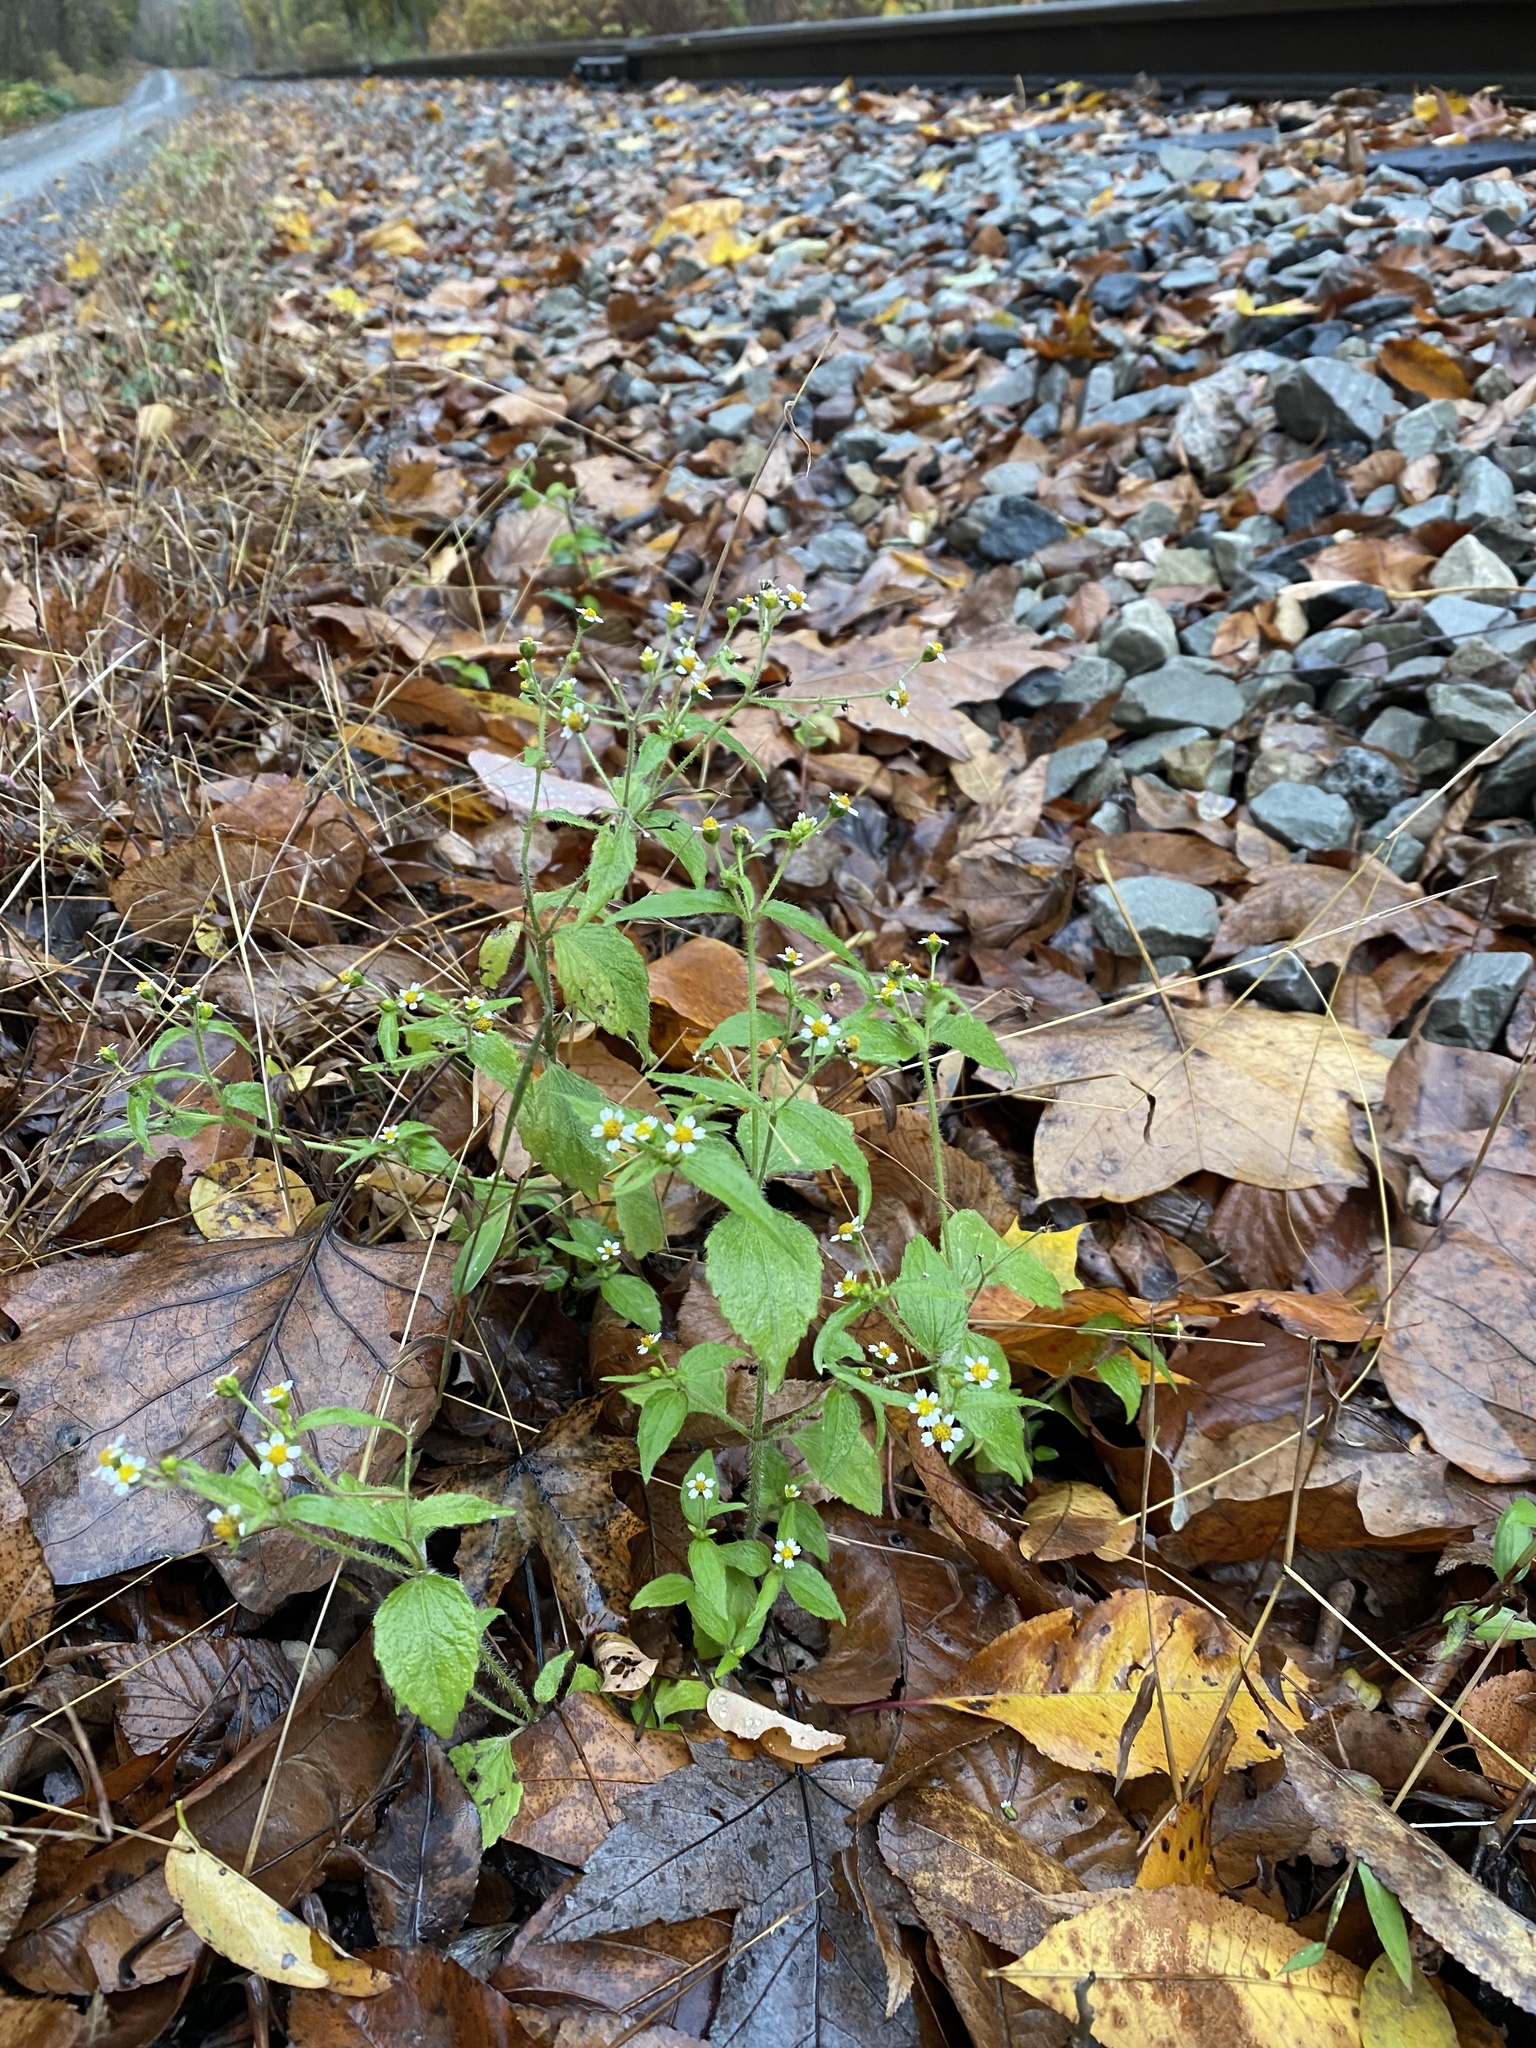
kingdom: Plantae
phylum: Tracheophyta
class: Magnoliopsida
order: Asterales
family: Asteraceae
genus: Galinsoga
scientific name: Galinsoga quadriradiata
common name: Shaggy soldier
